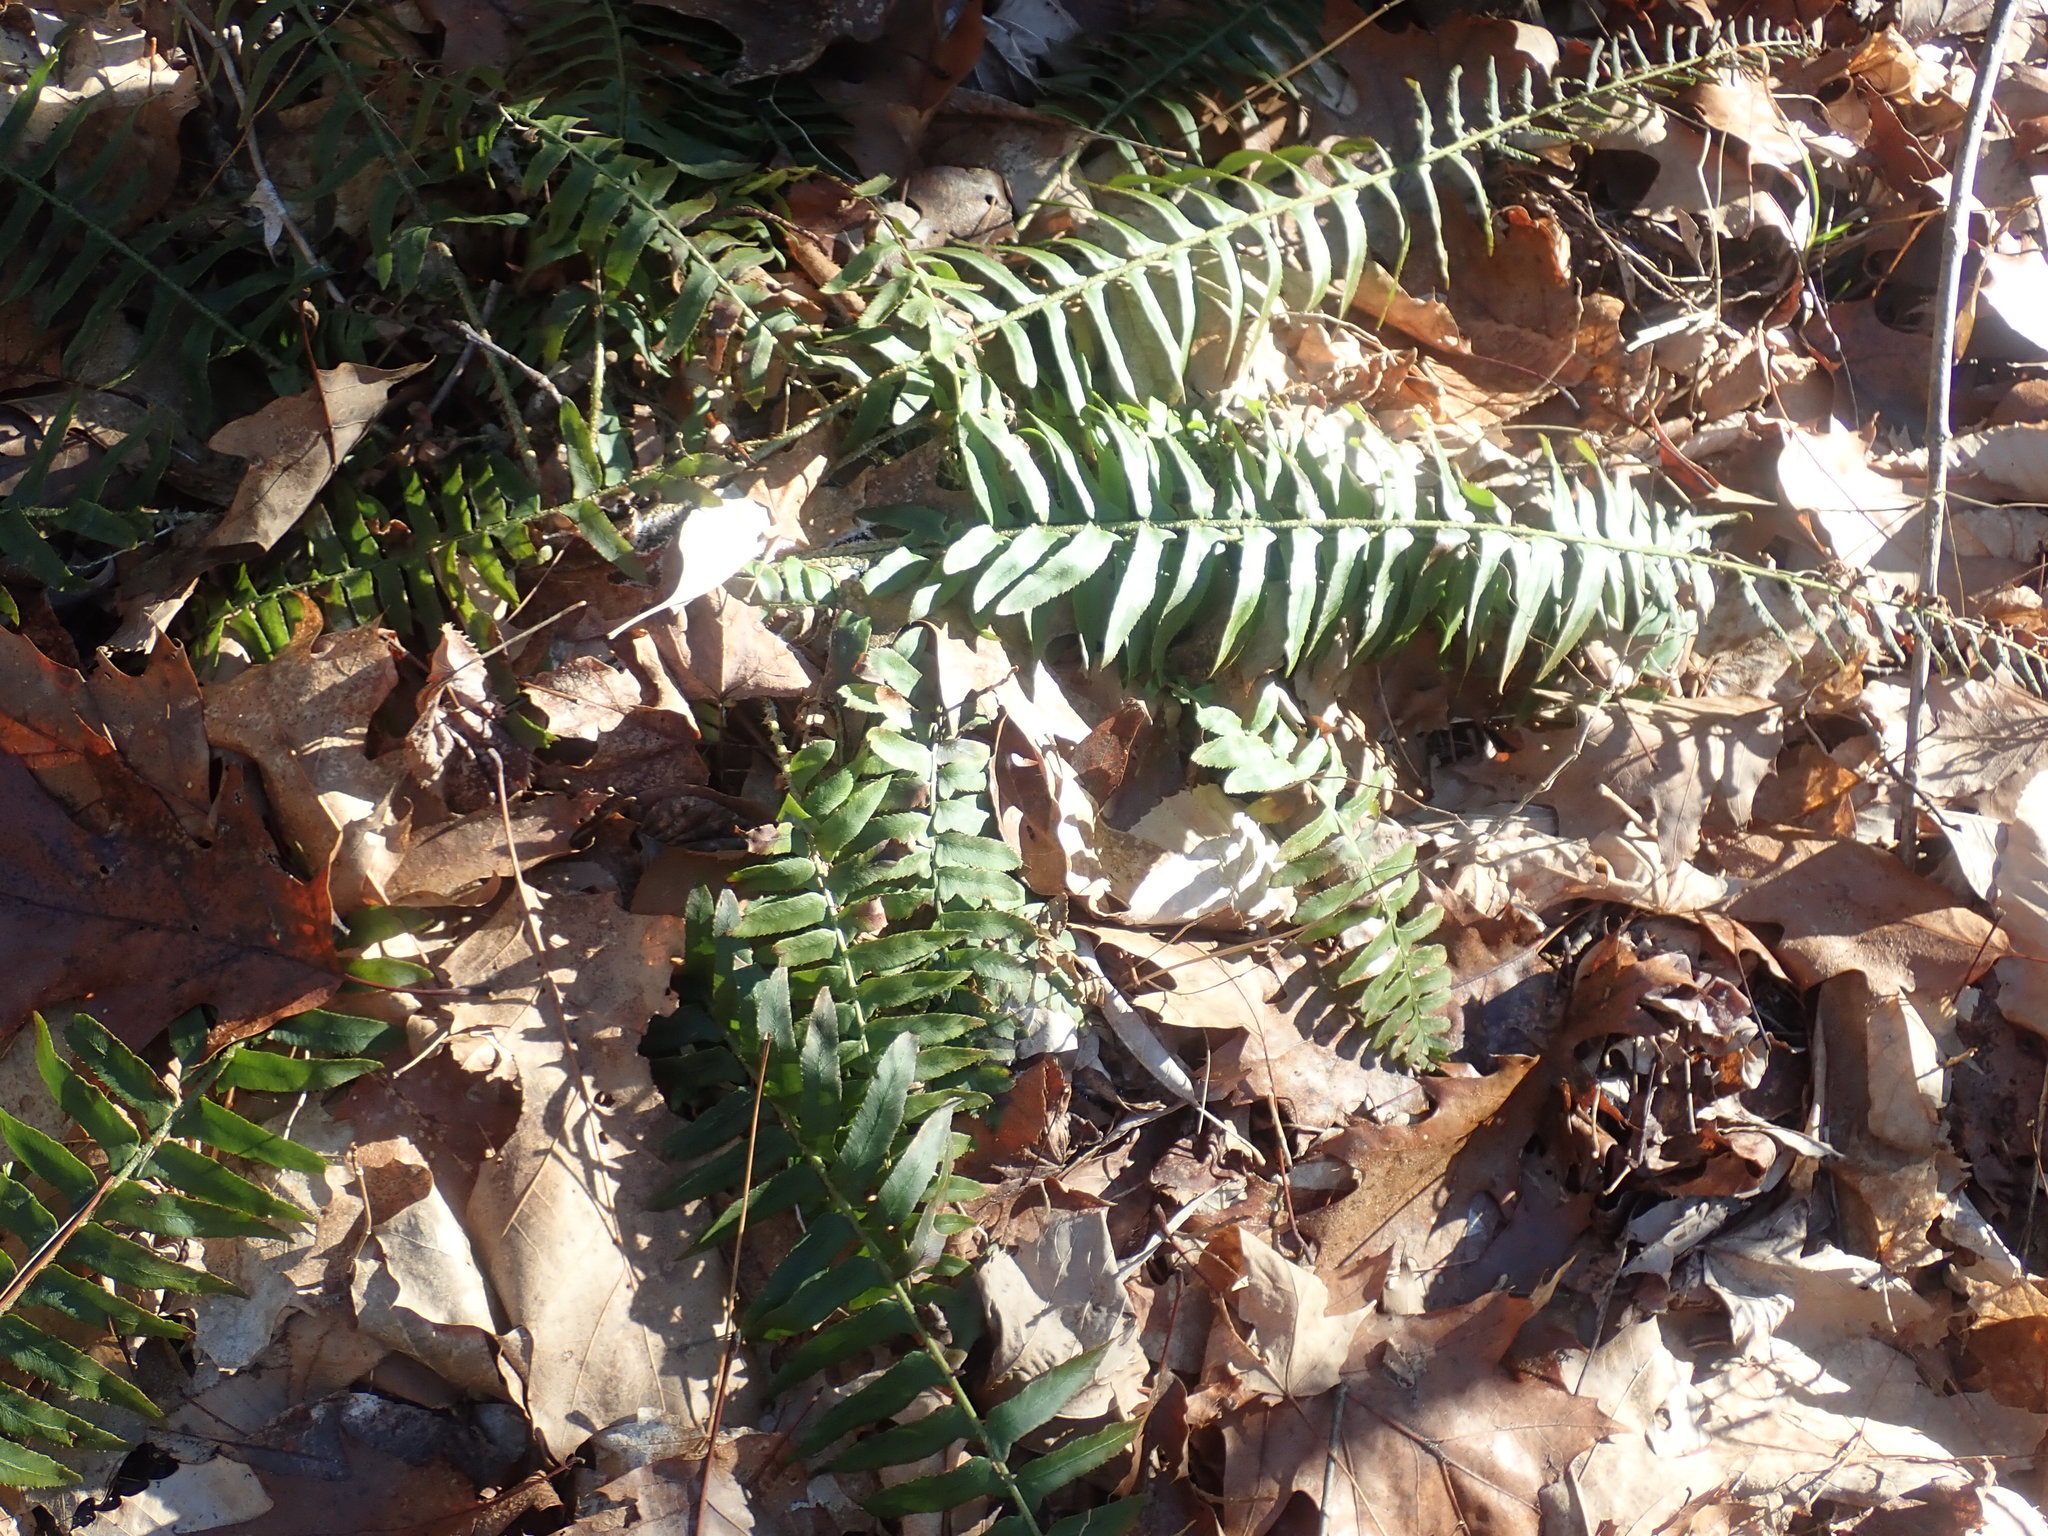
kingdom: Plantae
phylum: Tracheophyta
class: Polypodiopsida
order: Polypodiales
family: Dryopteridaceae
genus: Polystichum
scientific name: Polystichum acrostichoides
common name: Christmas fern
